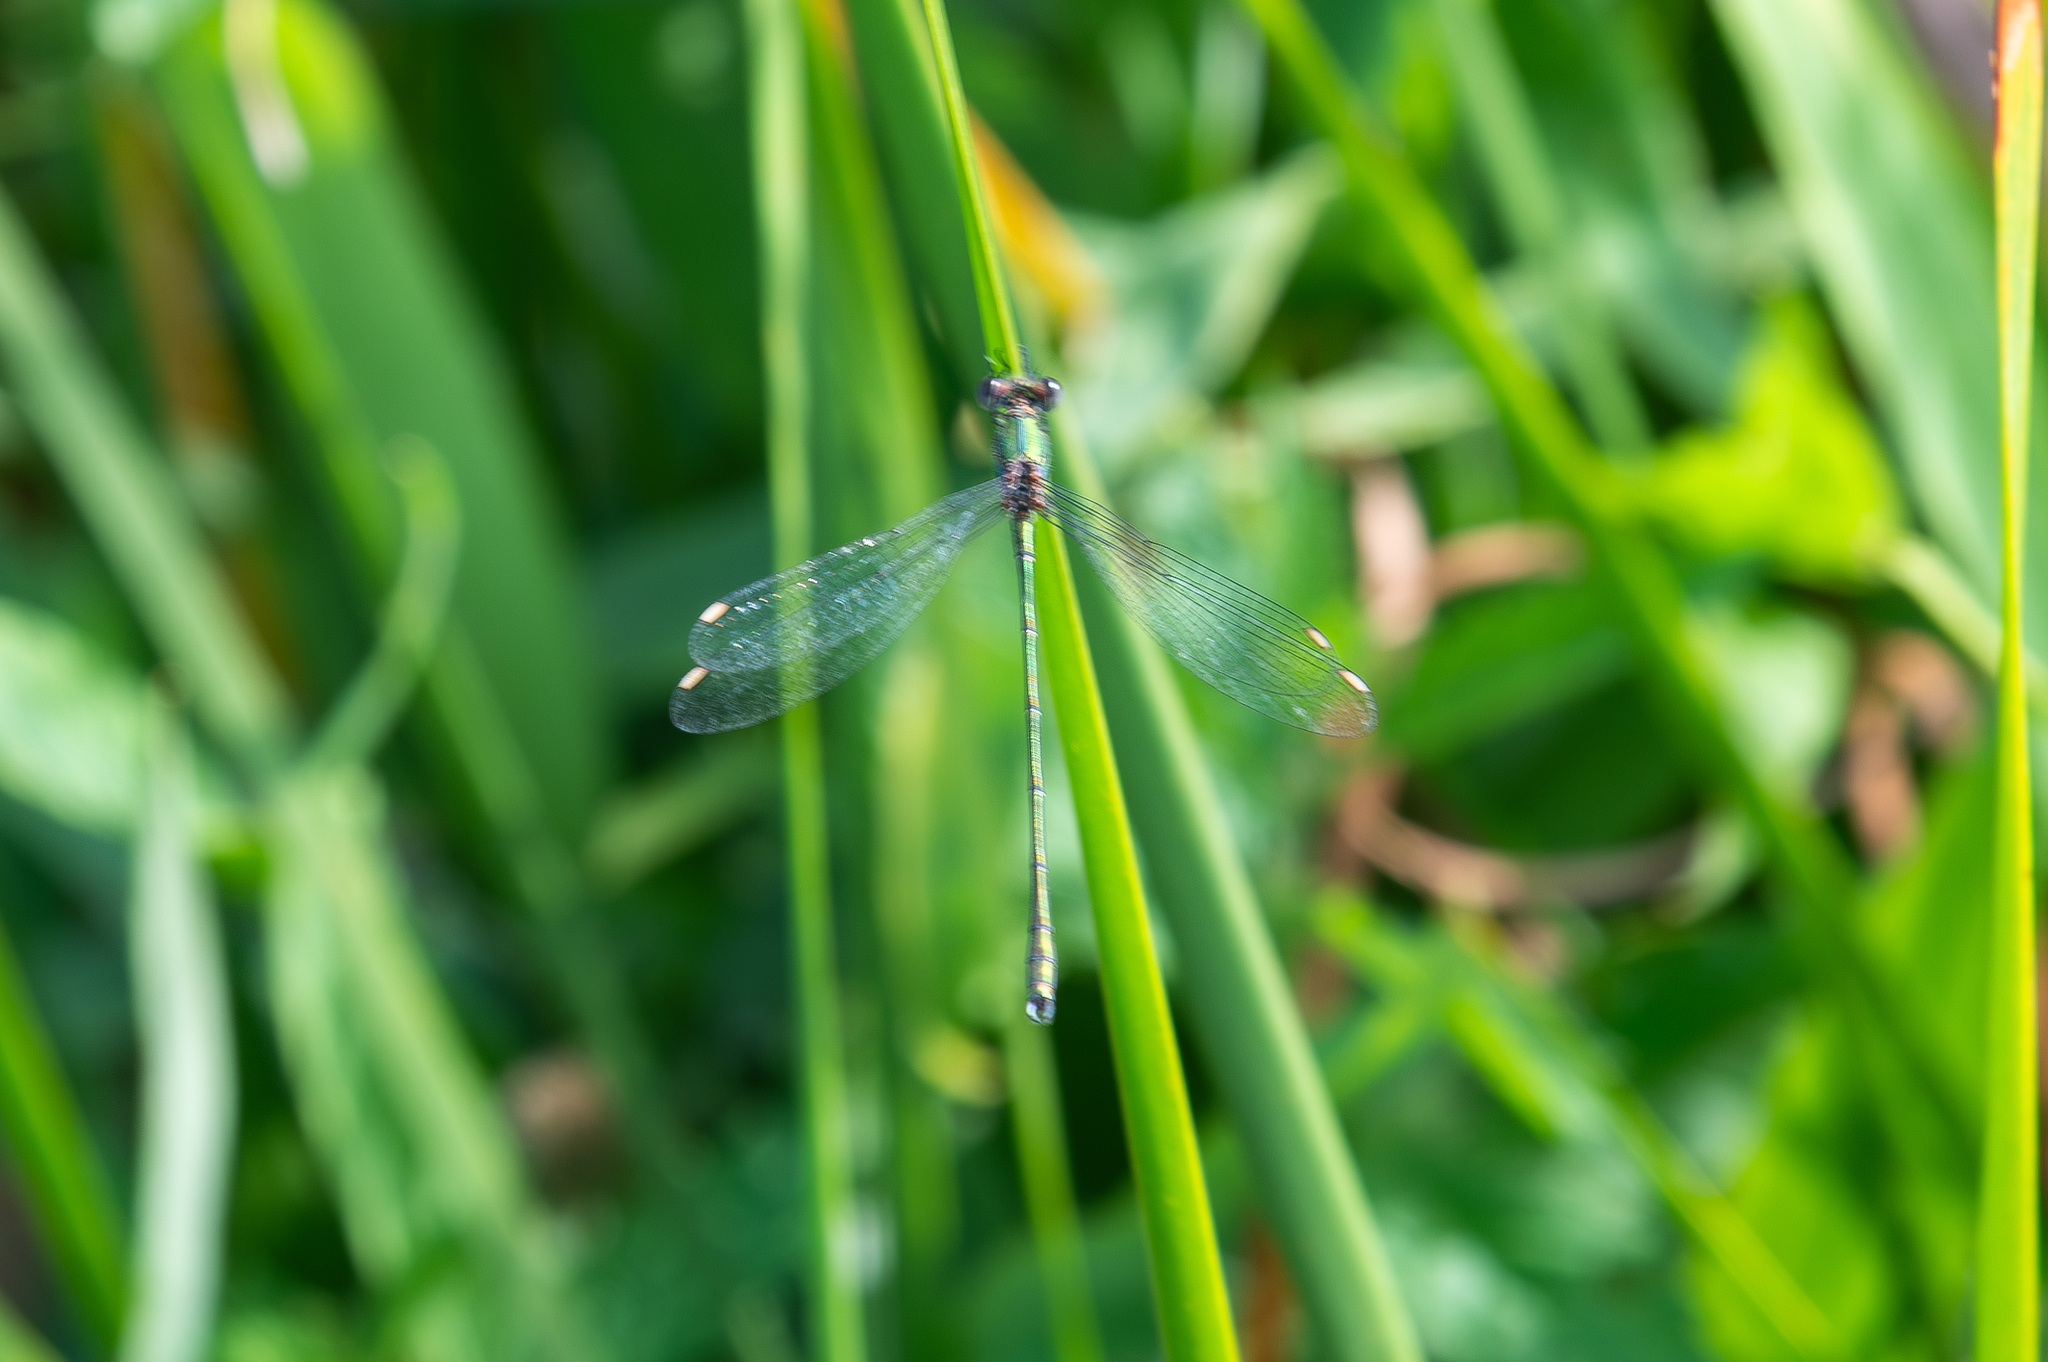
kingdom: Animalia
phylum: Arthropoda
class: Insecta
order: Odonata
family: Lestidae
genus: Chalcolestes
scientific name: Chalcolestes viridis
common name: Green emerald damselfly
